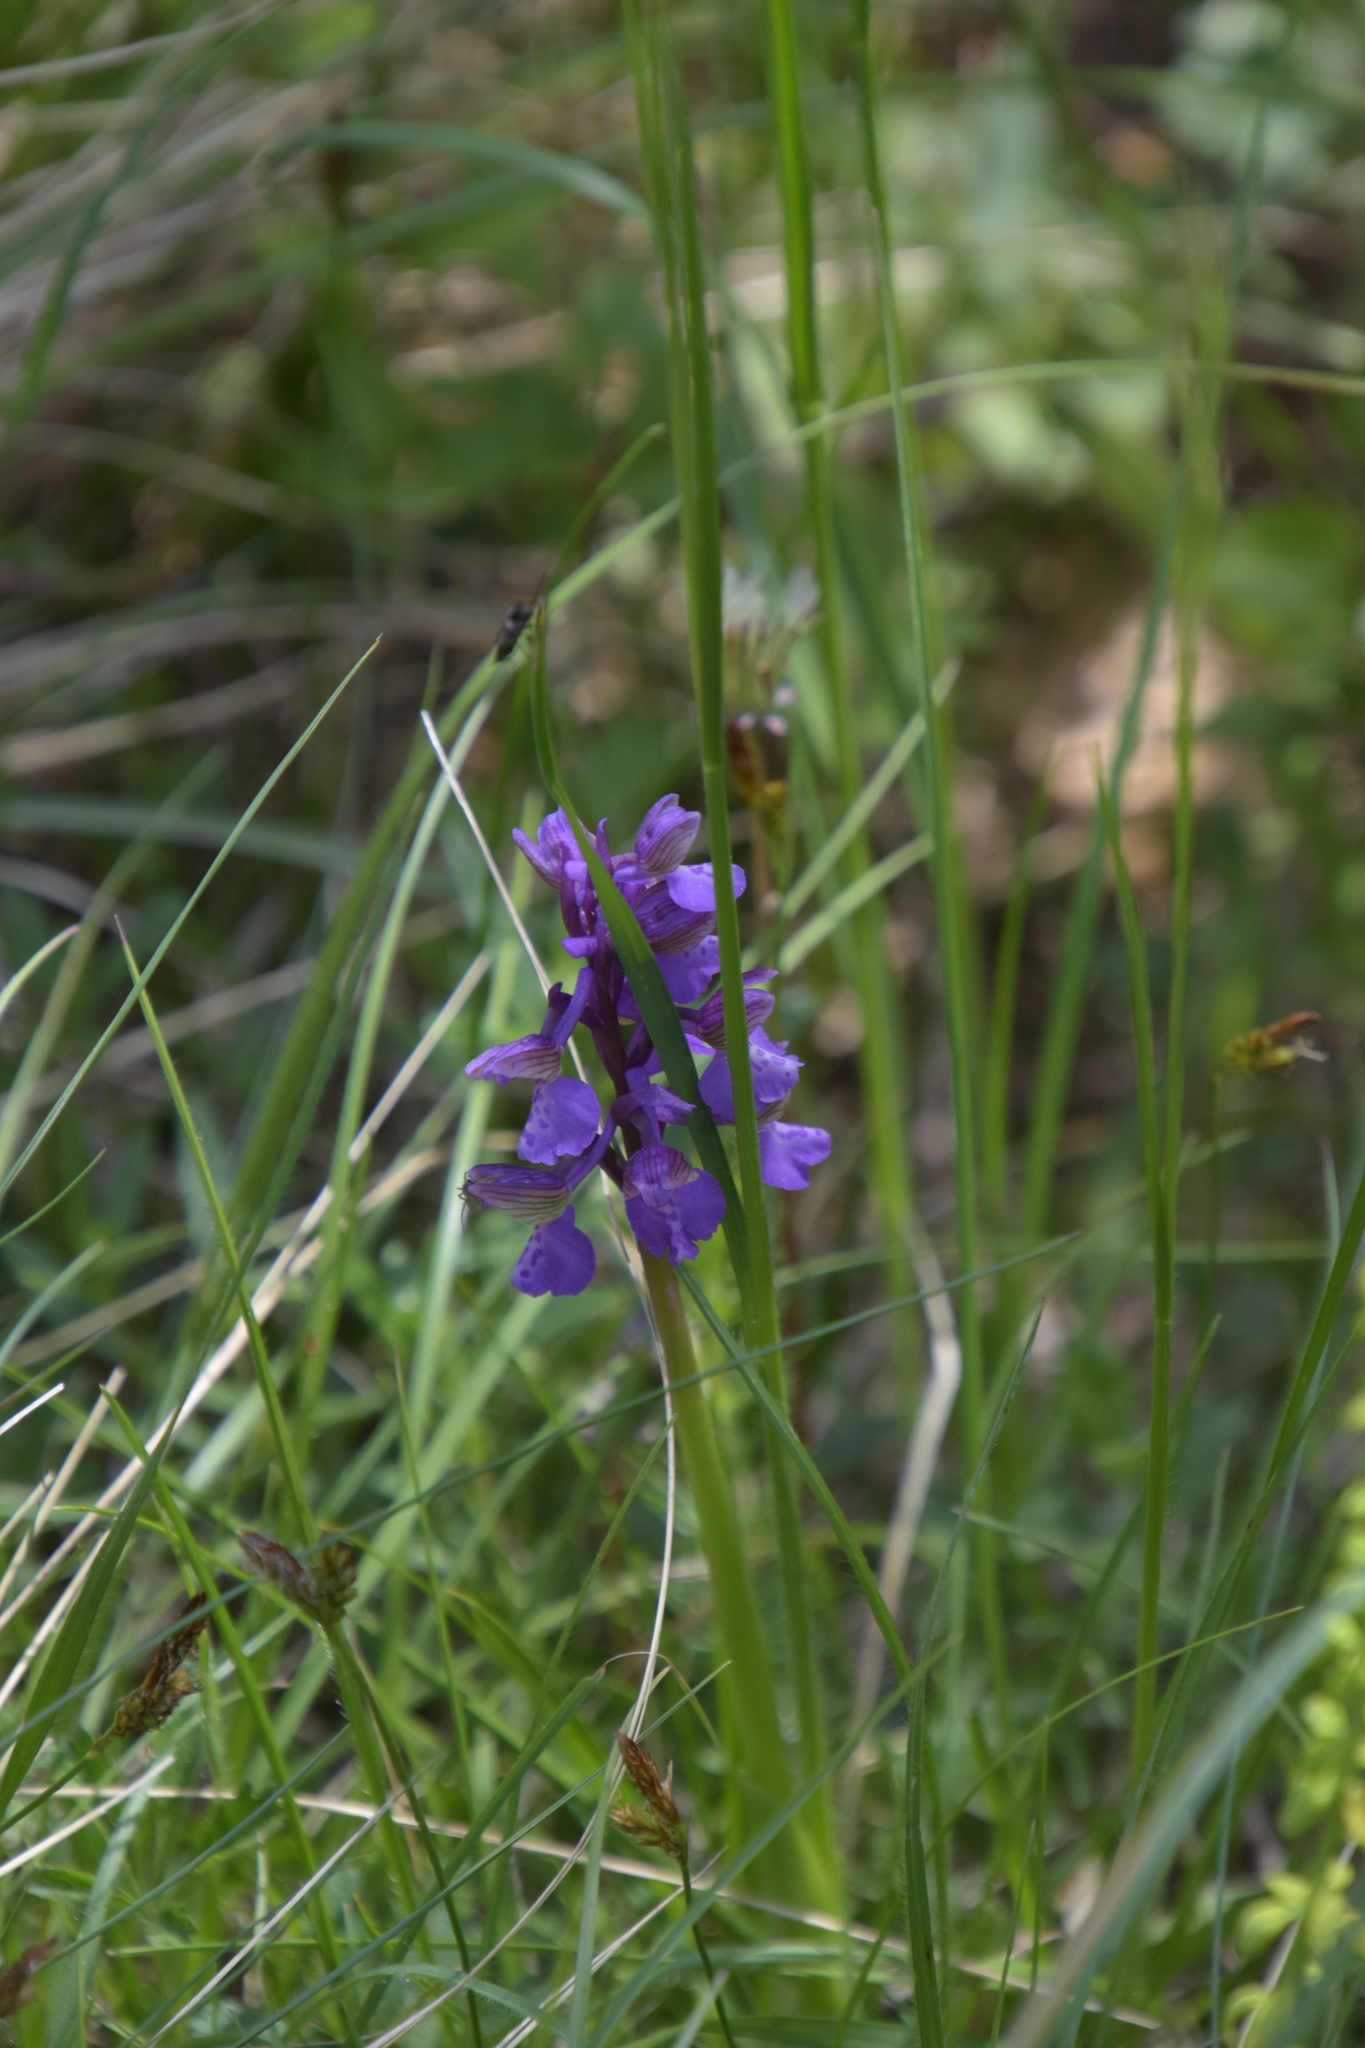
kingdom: Plantae
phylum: Tracheophyta
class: Liliopsida
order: Asparagales
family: Orchidaceae
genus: Anacamptis
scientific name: Anacamptis morio
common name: Green-winged orchid
